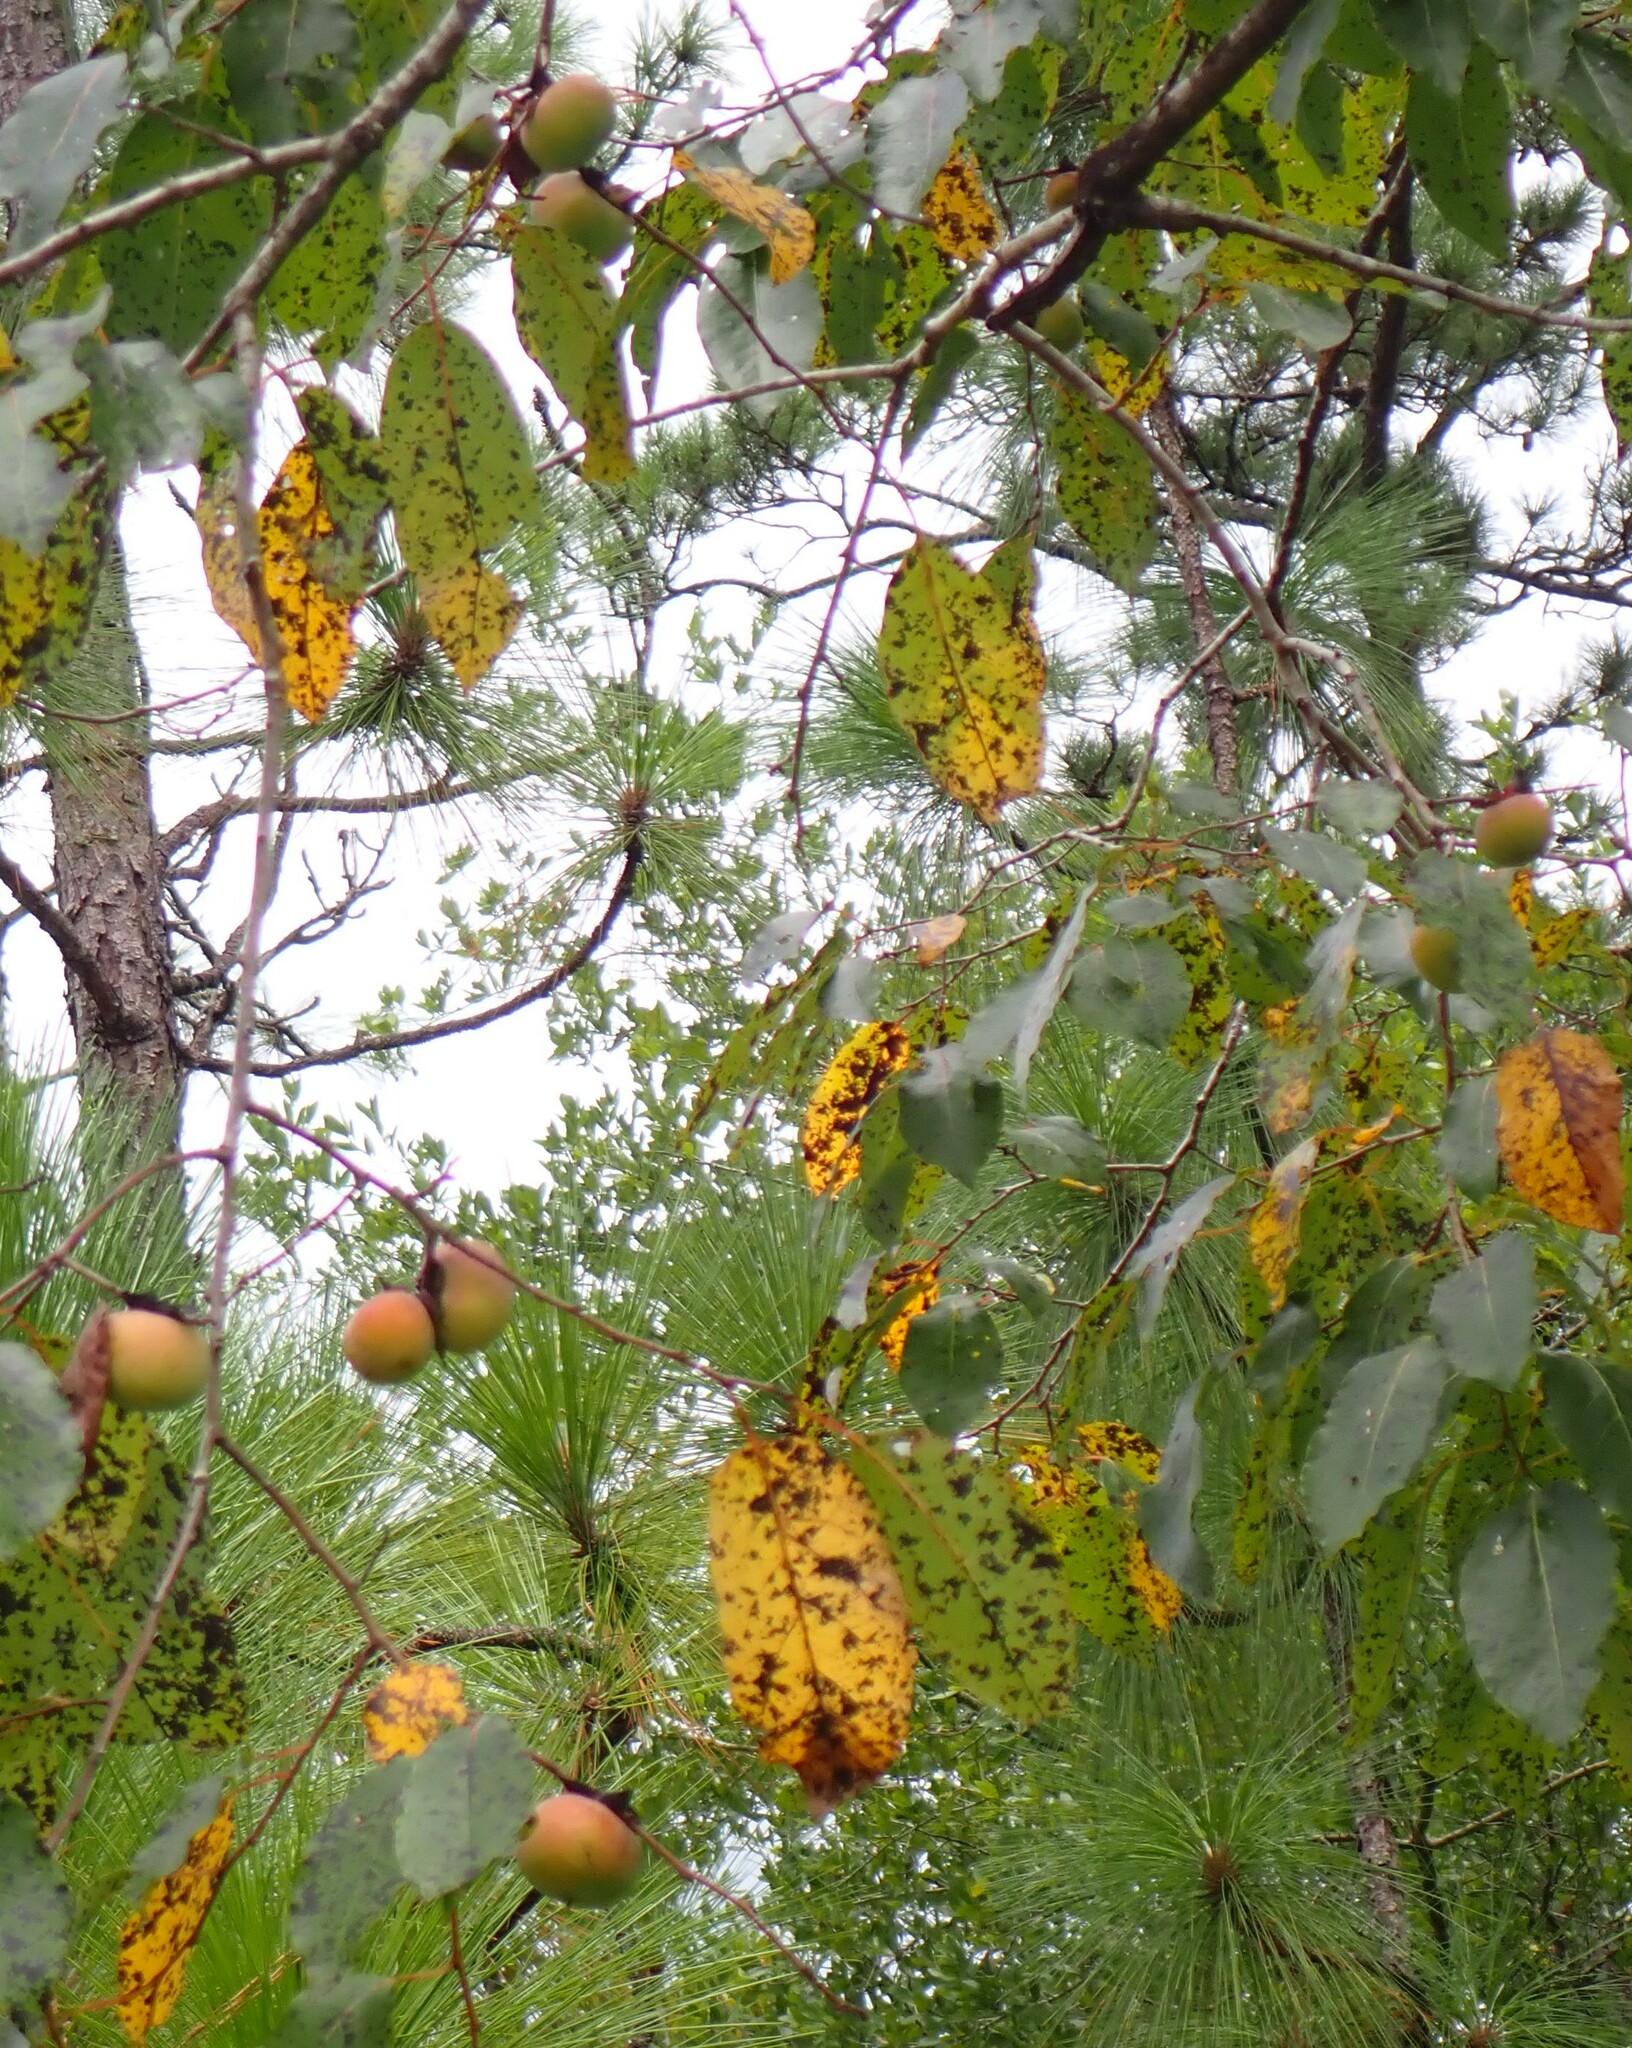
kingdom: Plantae
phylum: Tracheophyta
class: Magnoliopsida
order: Ericales
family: Ebenaceae
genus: Diospyros
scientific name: Diospyros virginiana
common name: Persimmon
